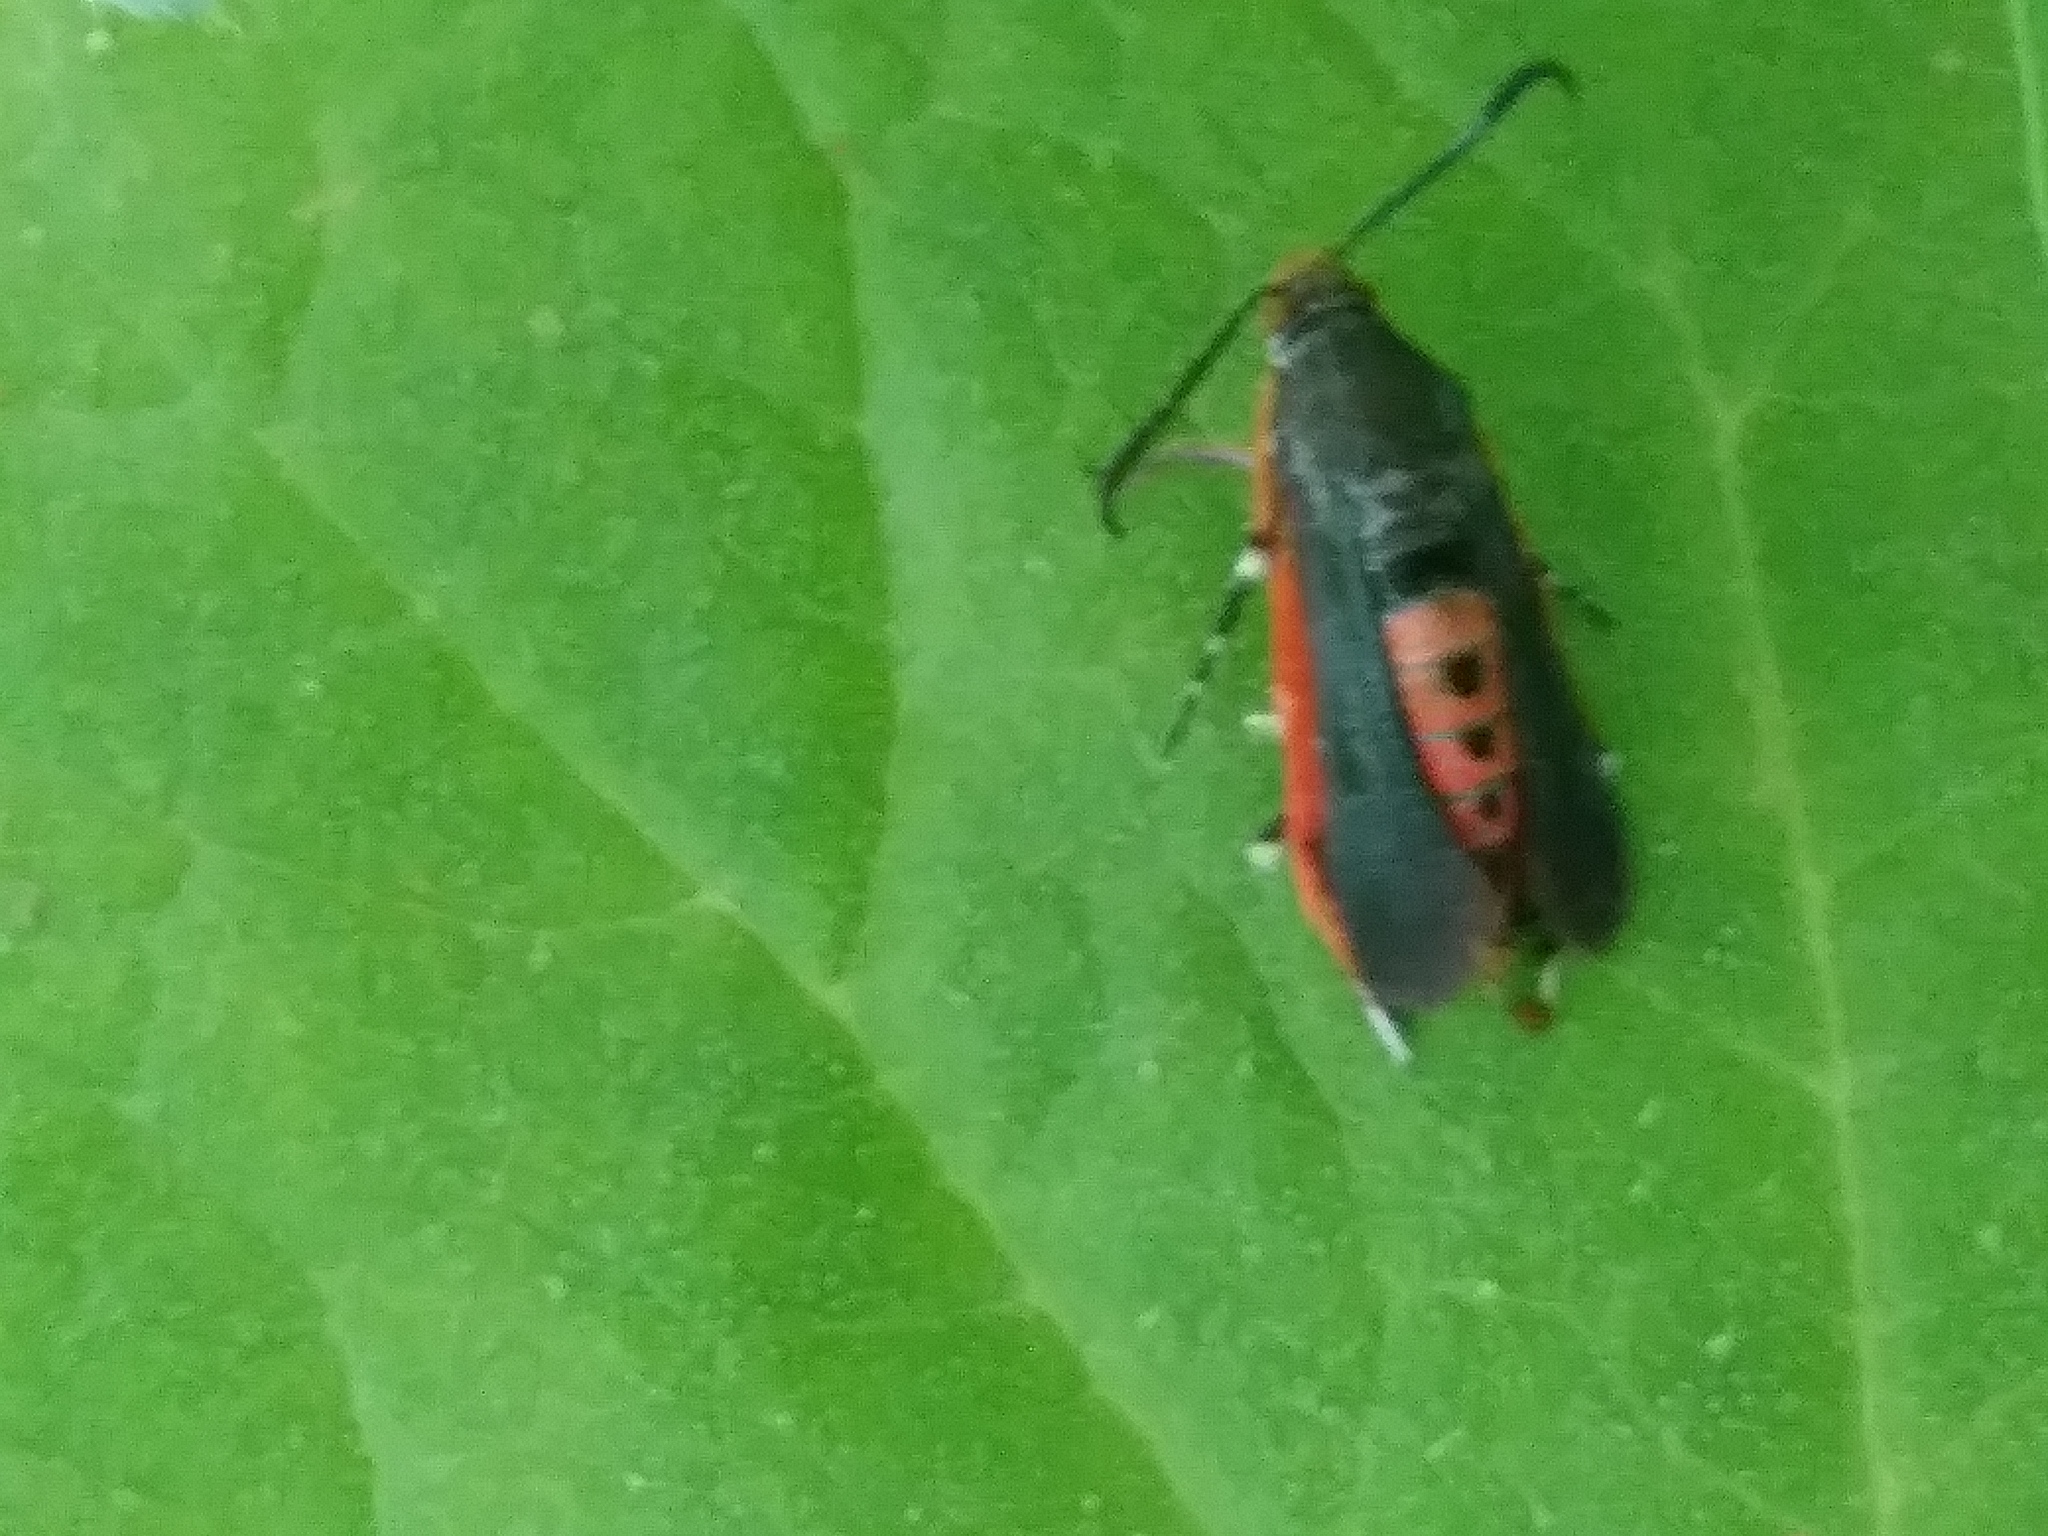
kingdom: Animalia
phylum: Arthropoda
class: Insecta
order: Lepidoptera
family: Sesiidae
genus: Eichlinia
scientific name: Eichlinia cucurbitae
